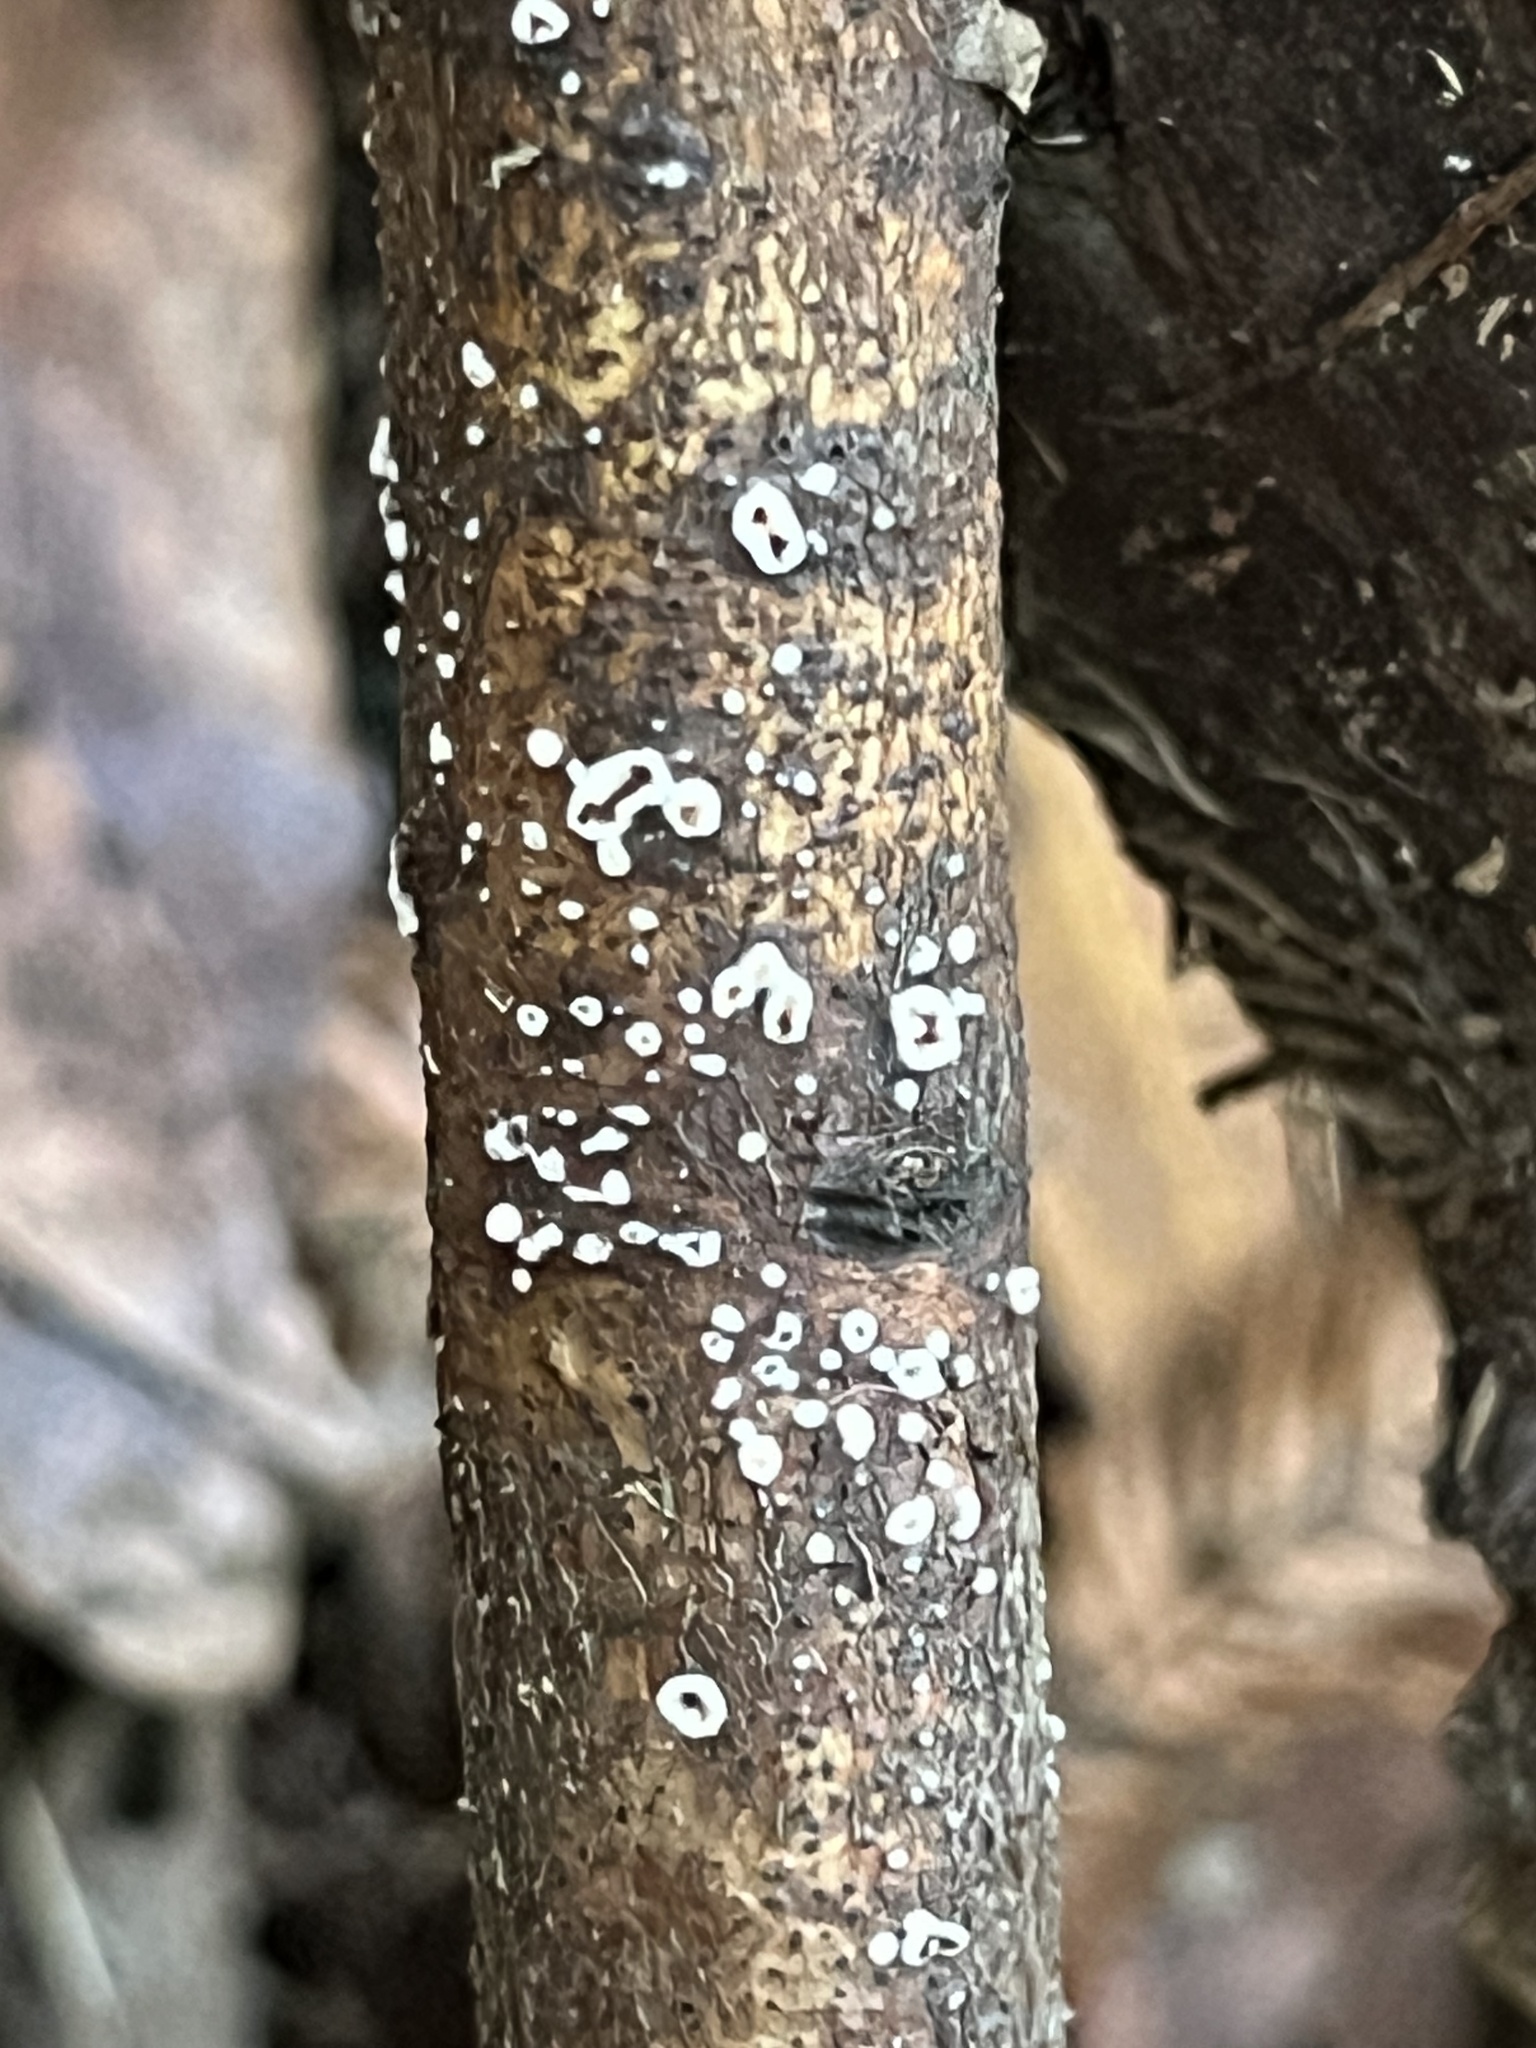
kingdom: Fungi
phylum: Basidiomycota
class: Agaricomycetes
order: Russulales
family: Peniophoraceae
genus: Peniophora
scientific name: Peniophora albobadia
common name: Giraffe spots
